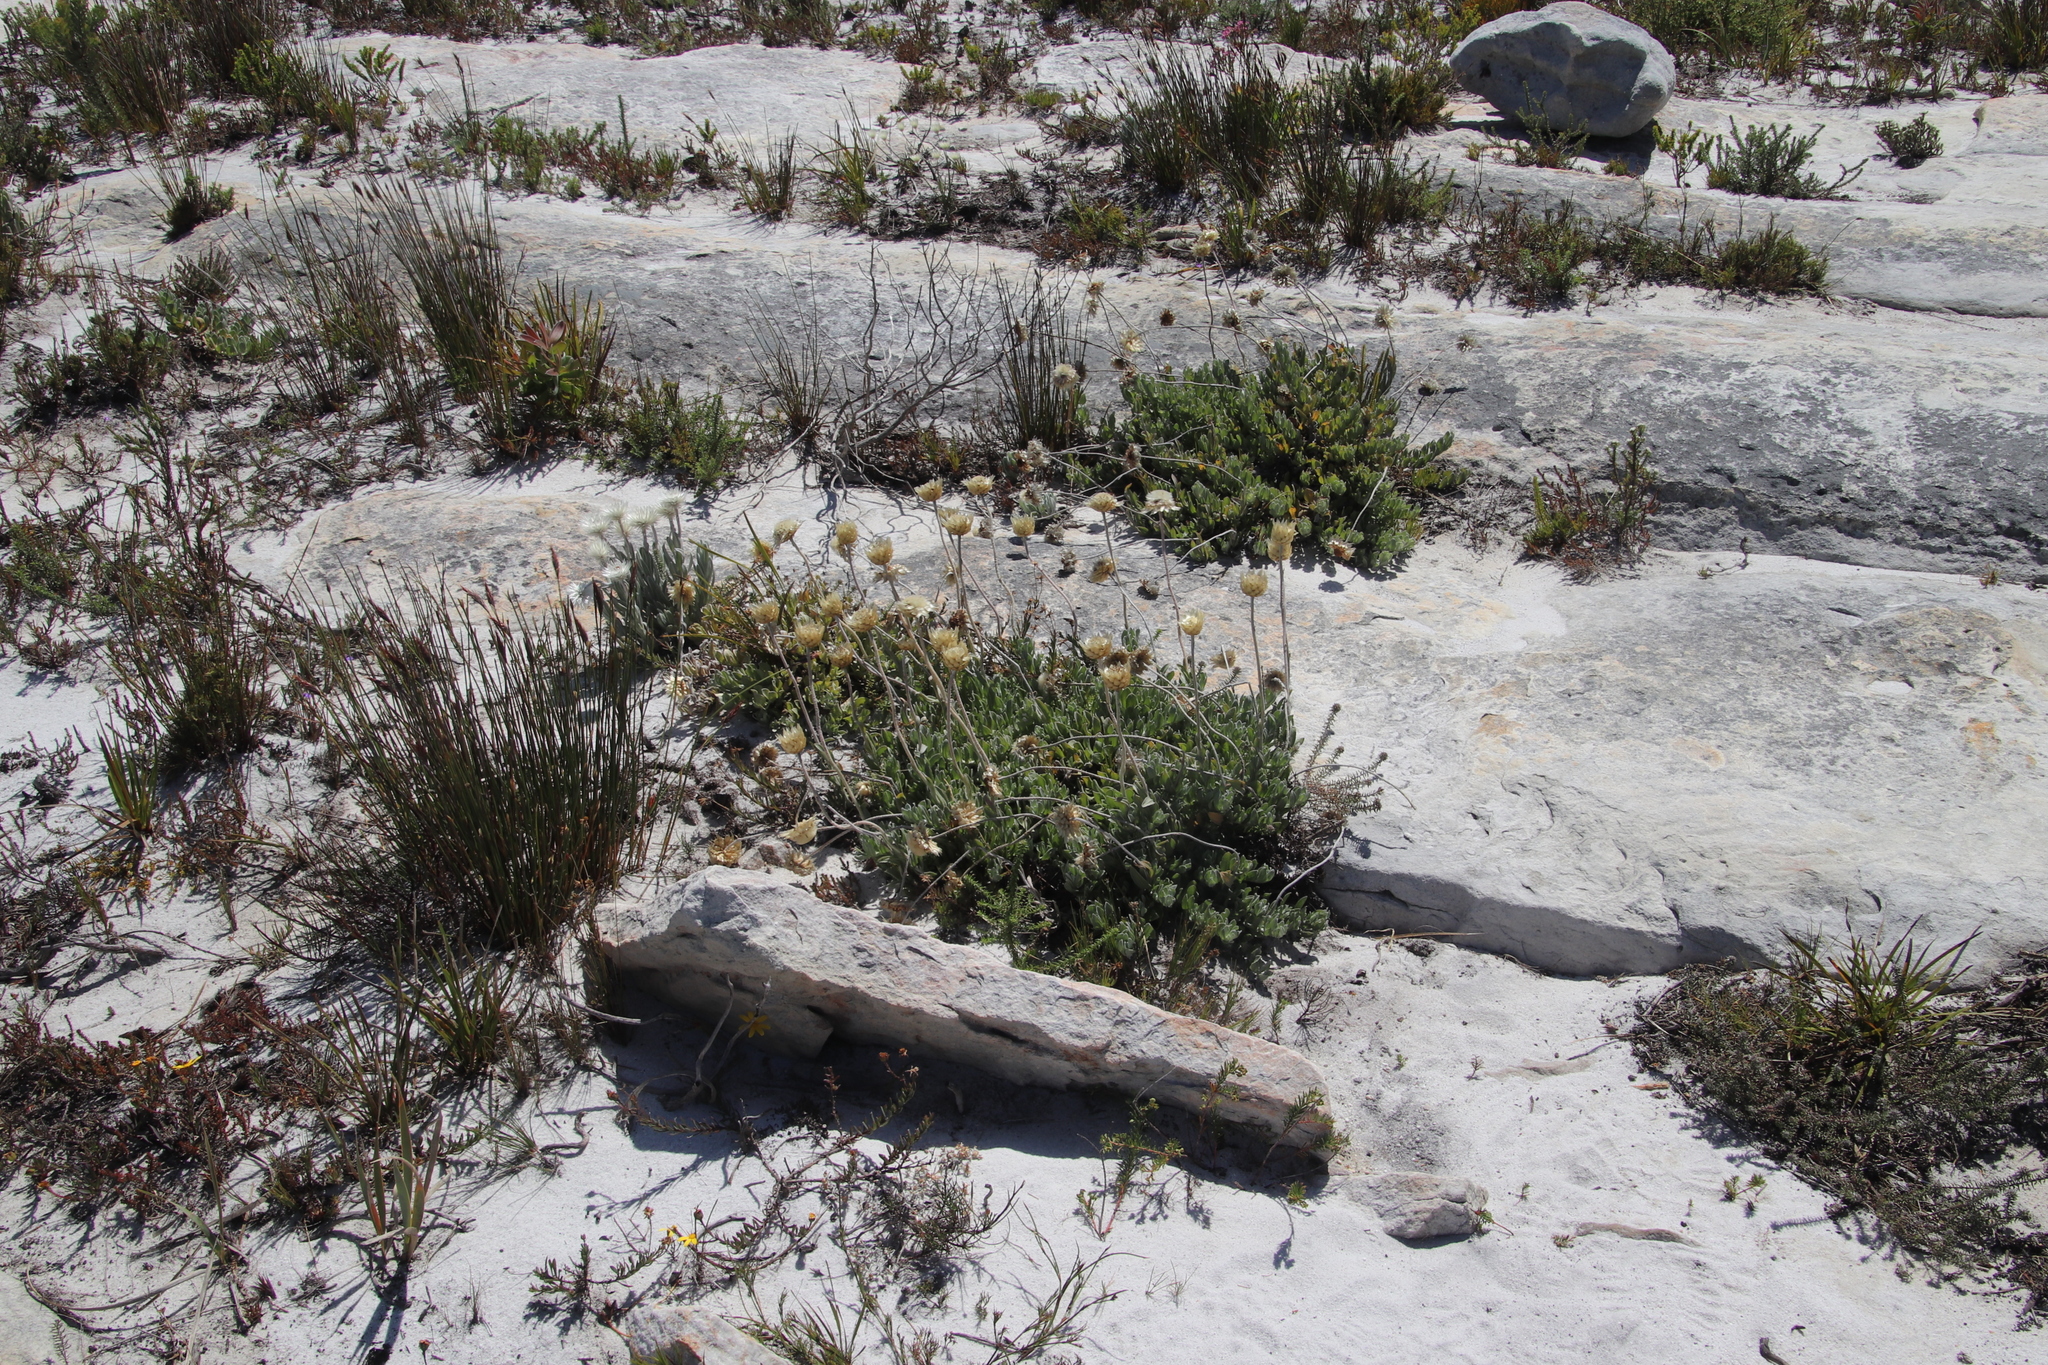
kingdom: Plantae
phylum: Tracheophyta
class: Magnoliopsida
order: Asterales
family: Asteraceae
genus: Syncarpha
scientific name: Syncarpha speciosissima
